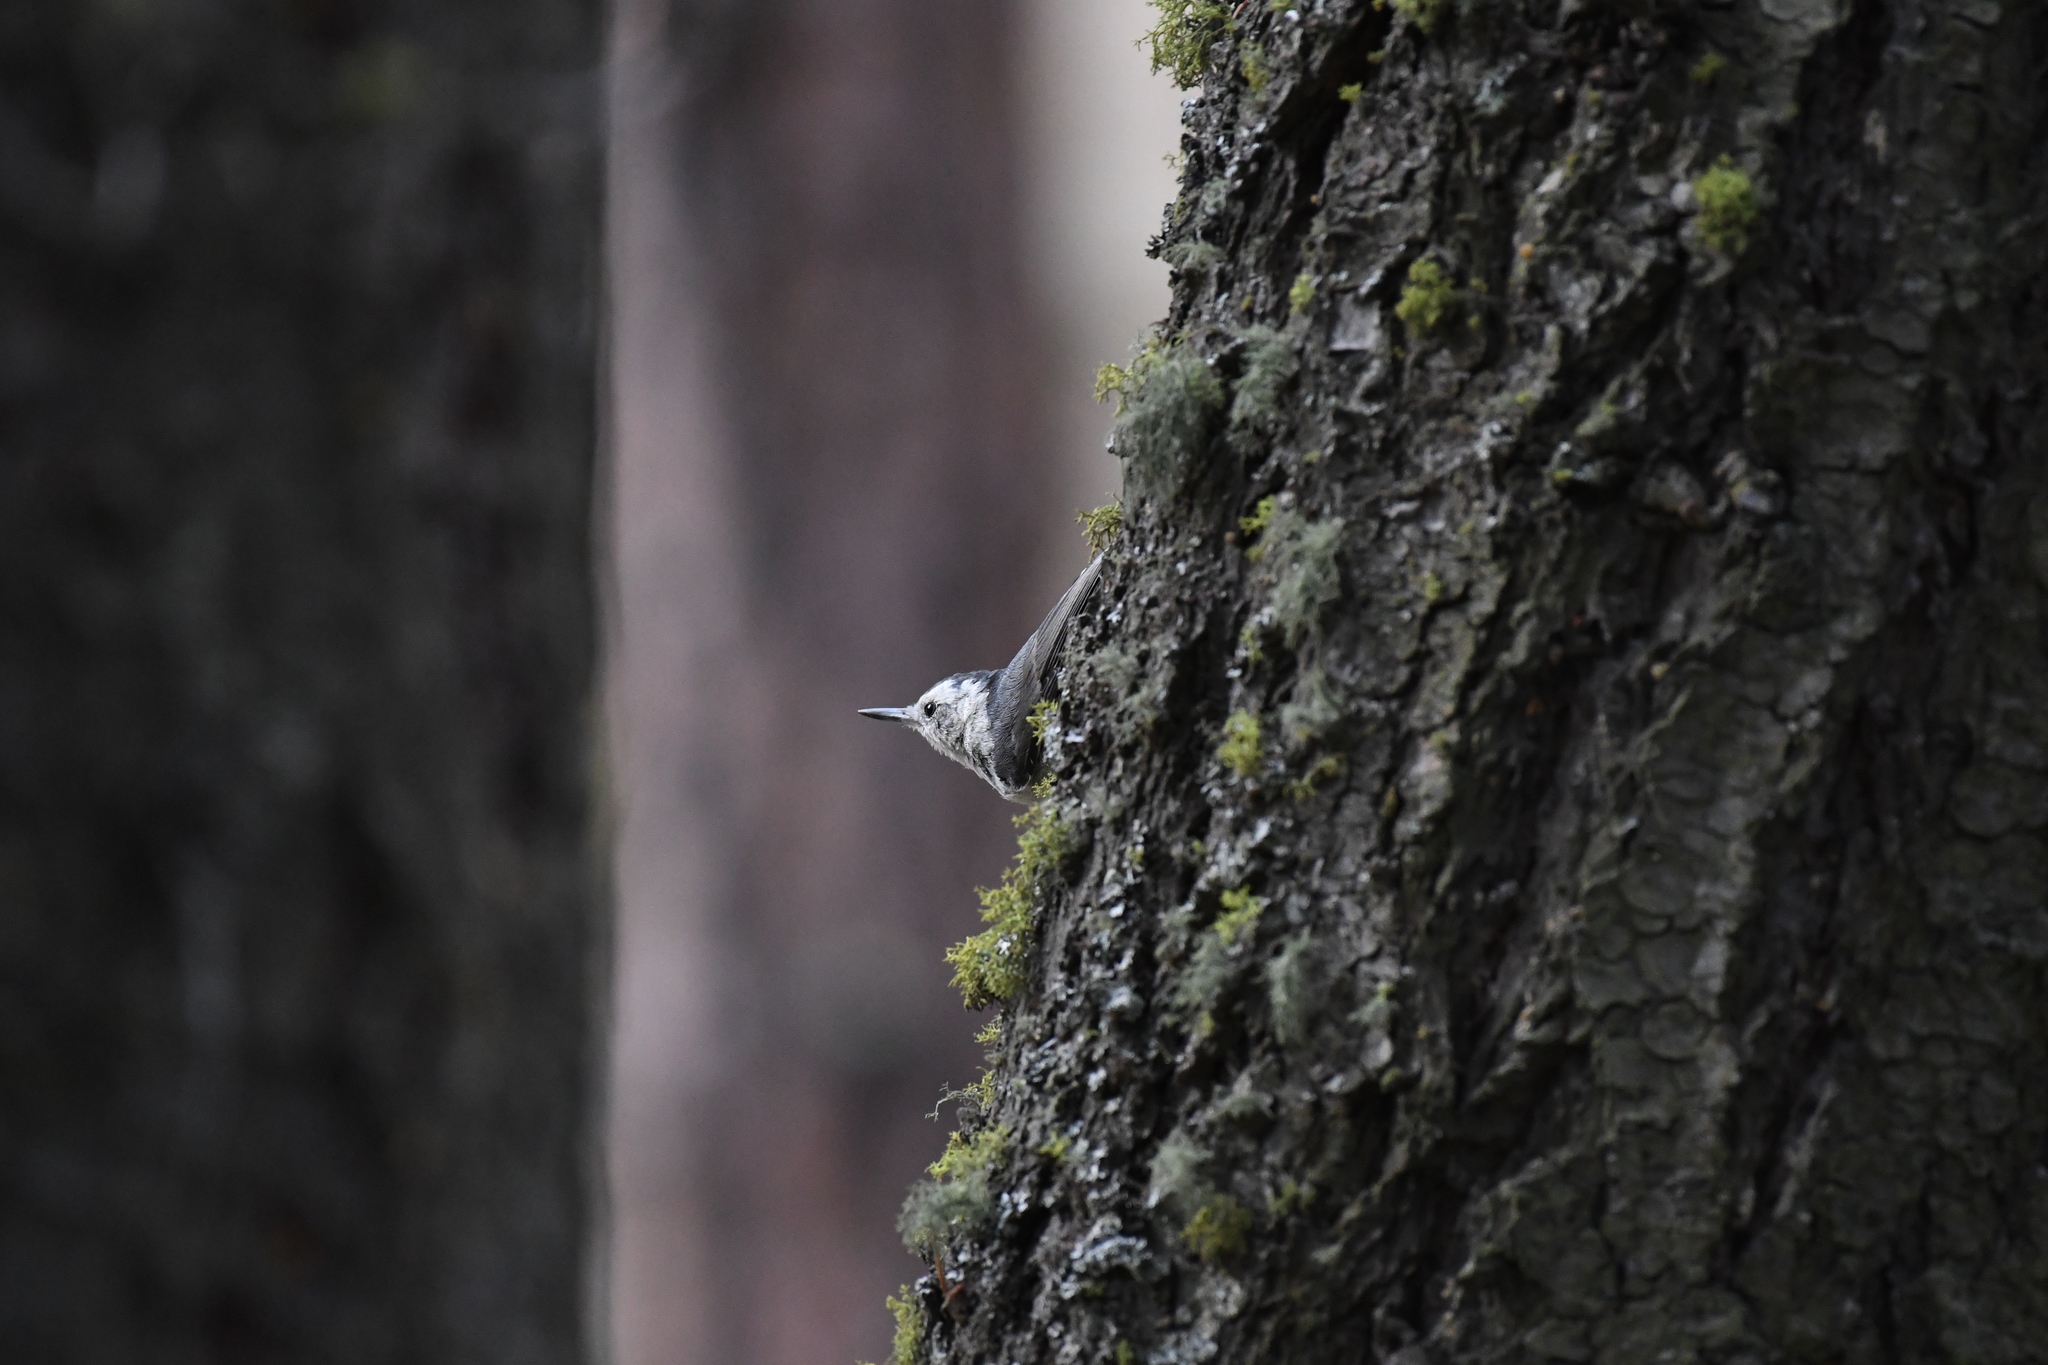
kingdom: Animalia
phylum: Chordata
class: Aves
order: Passeriformes
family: Sittidae
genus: Sitta
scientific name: Sitta carolinensis
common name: White-breasted nuthatch
